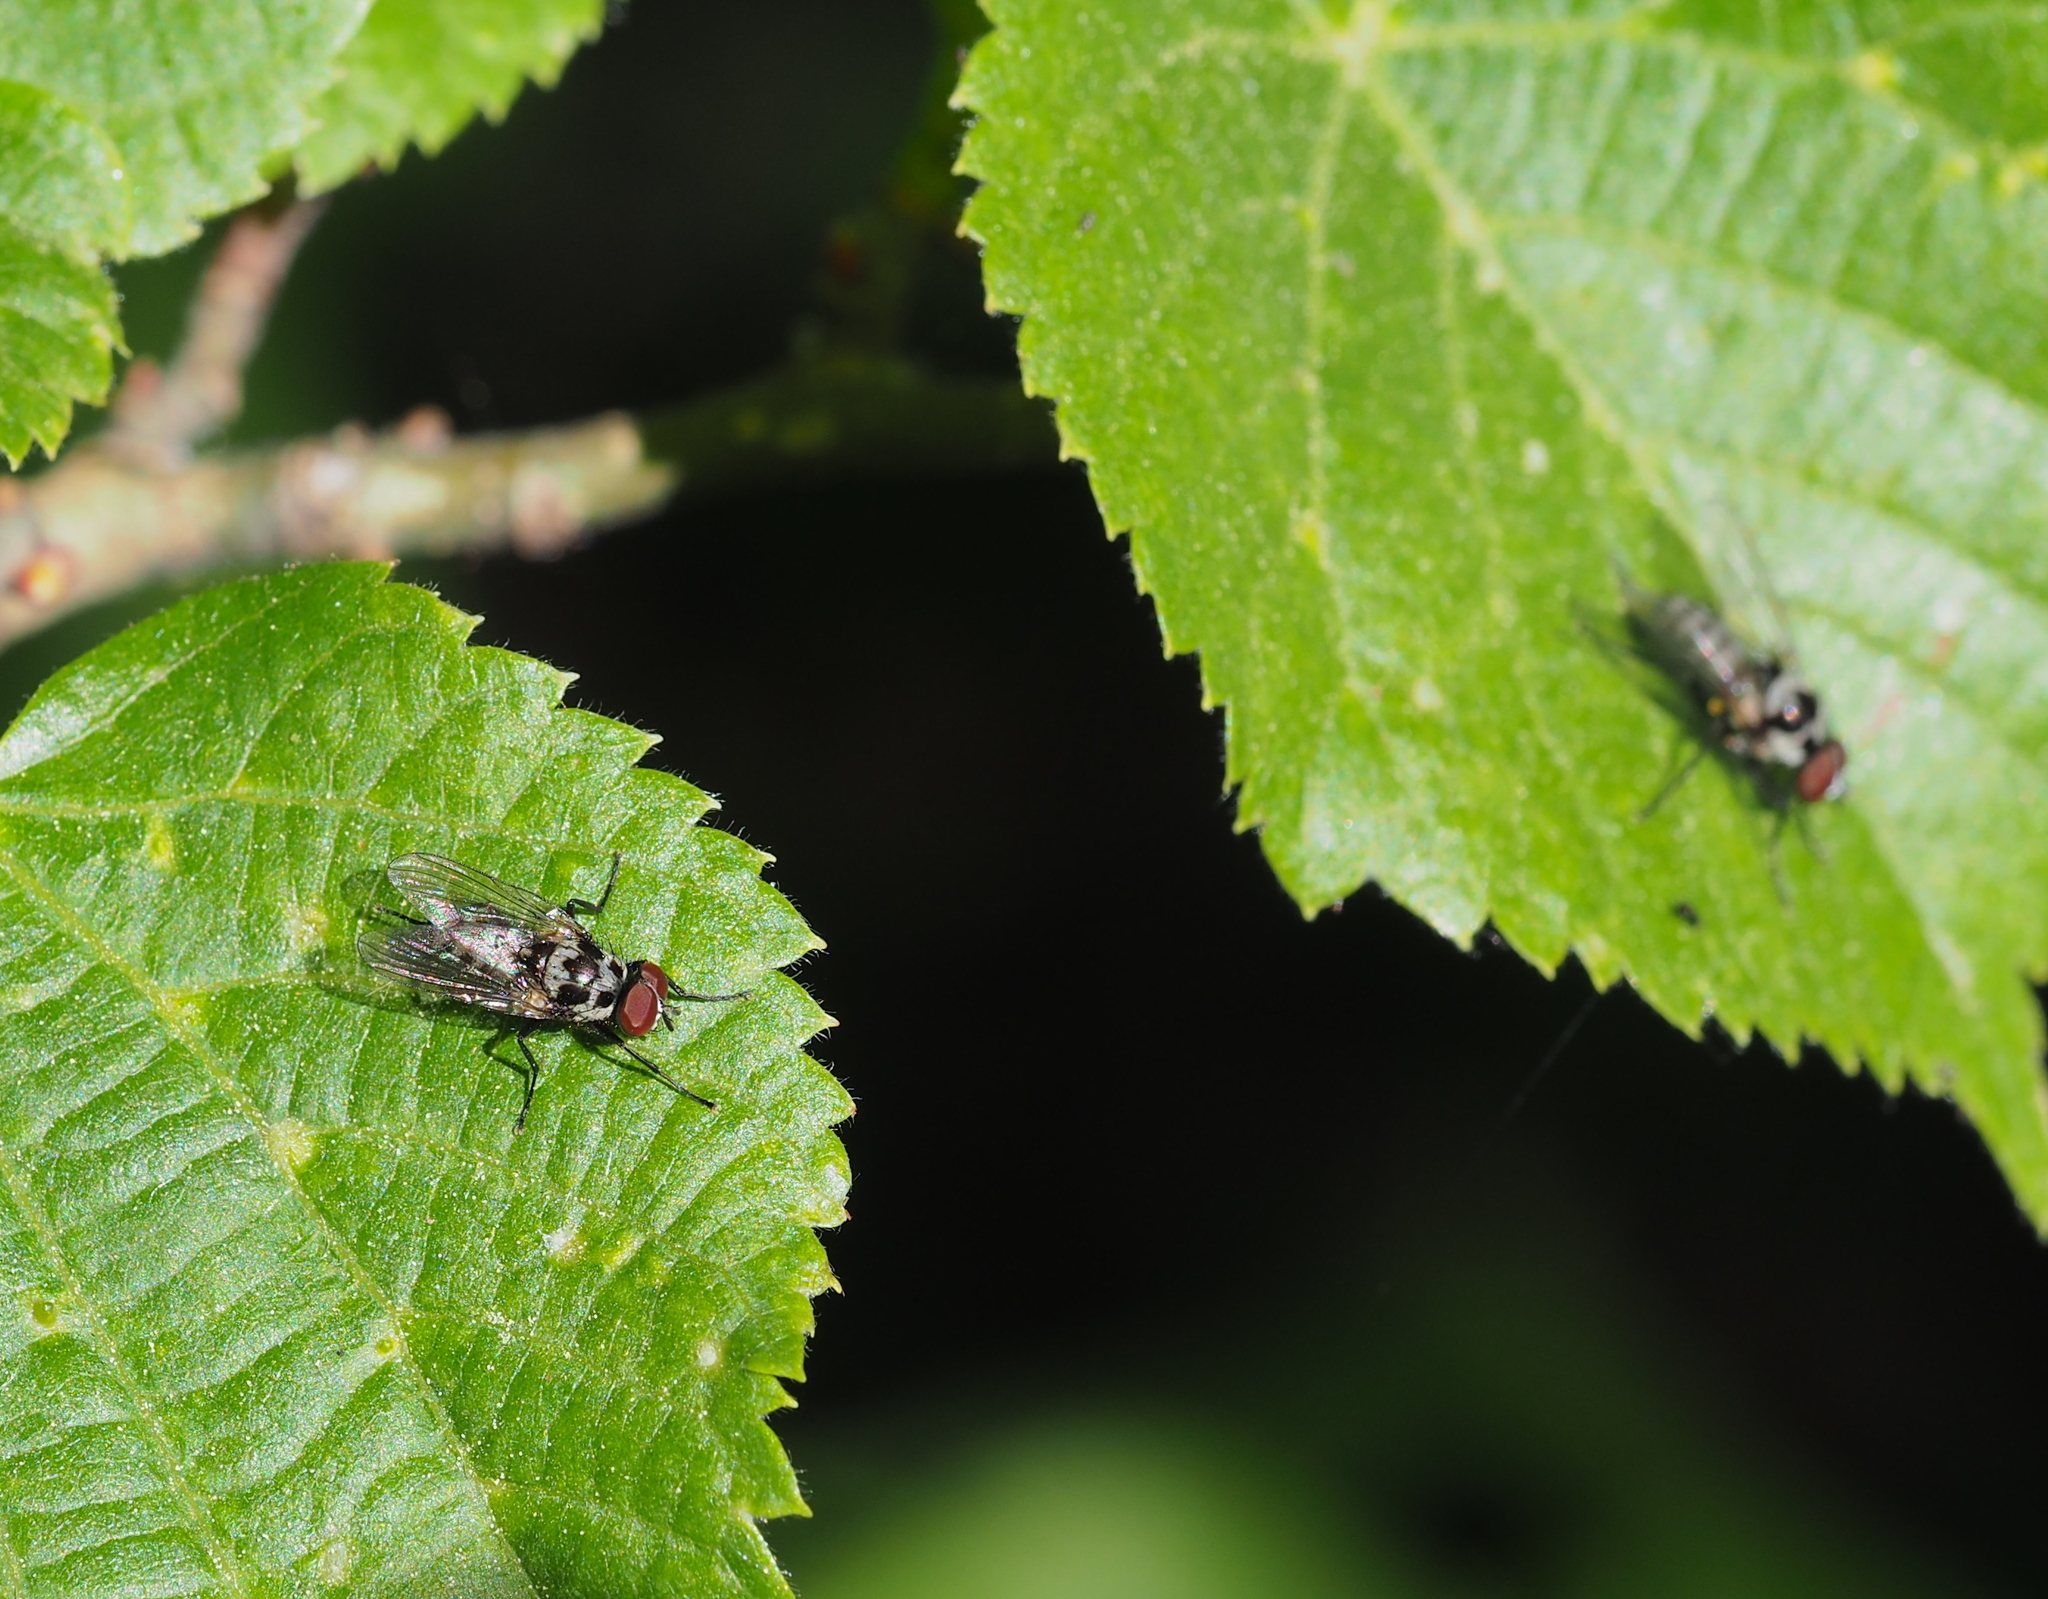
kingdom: Animalia
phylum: Arthropoda
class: Insecta
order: Diptera
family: Anthomyiidae
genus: Anthomyia
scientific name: Anthomyia procellaris
